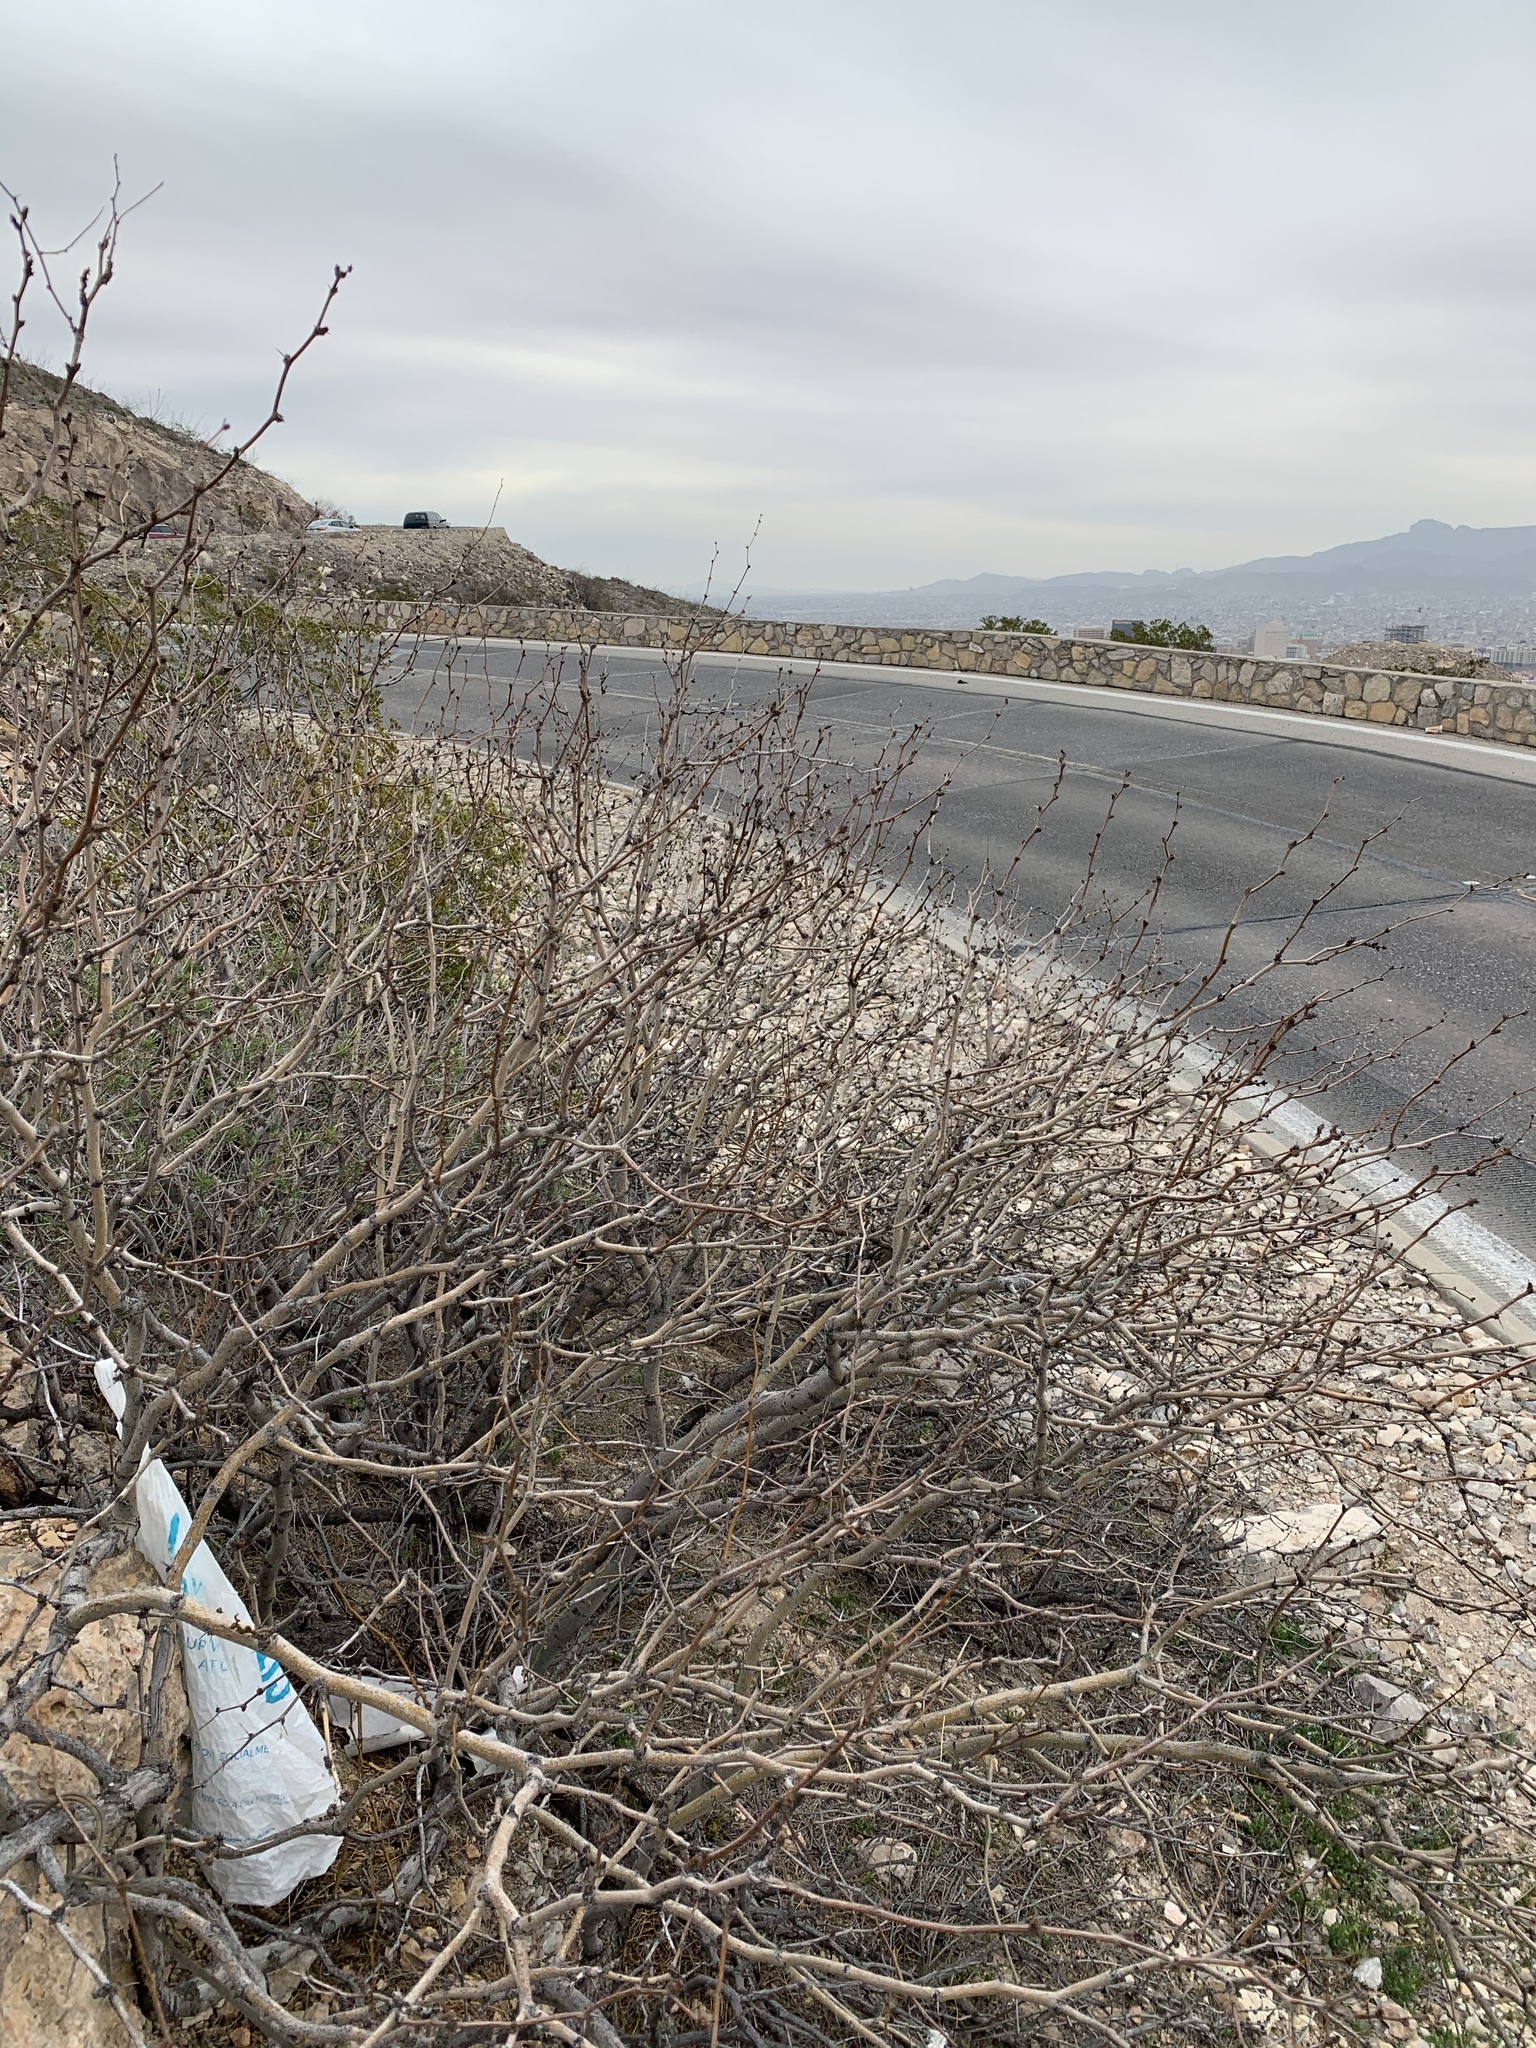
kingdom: Plantae
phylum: Tracheophyta
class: Magnoliopsida
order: Fabales
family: Fabaceae
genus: Prosopis
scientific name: Prosopis glandulosa
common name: Honey mesquite
